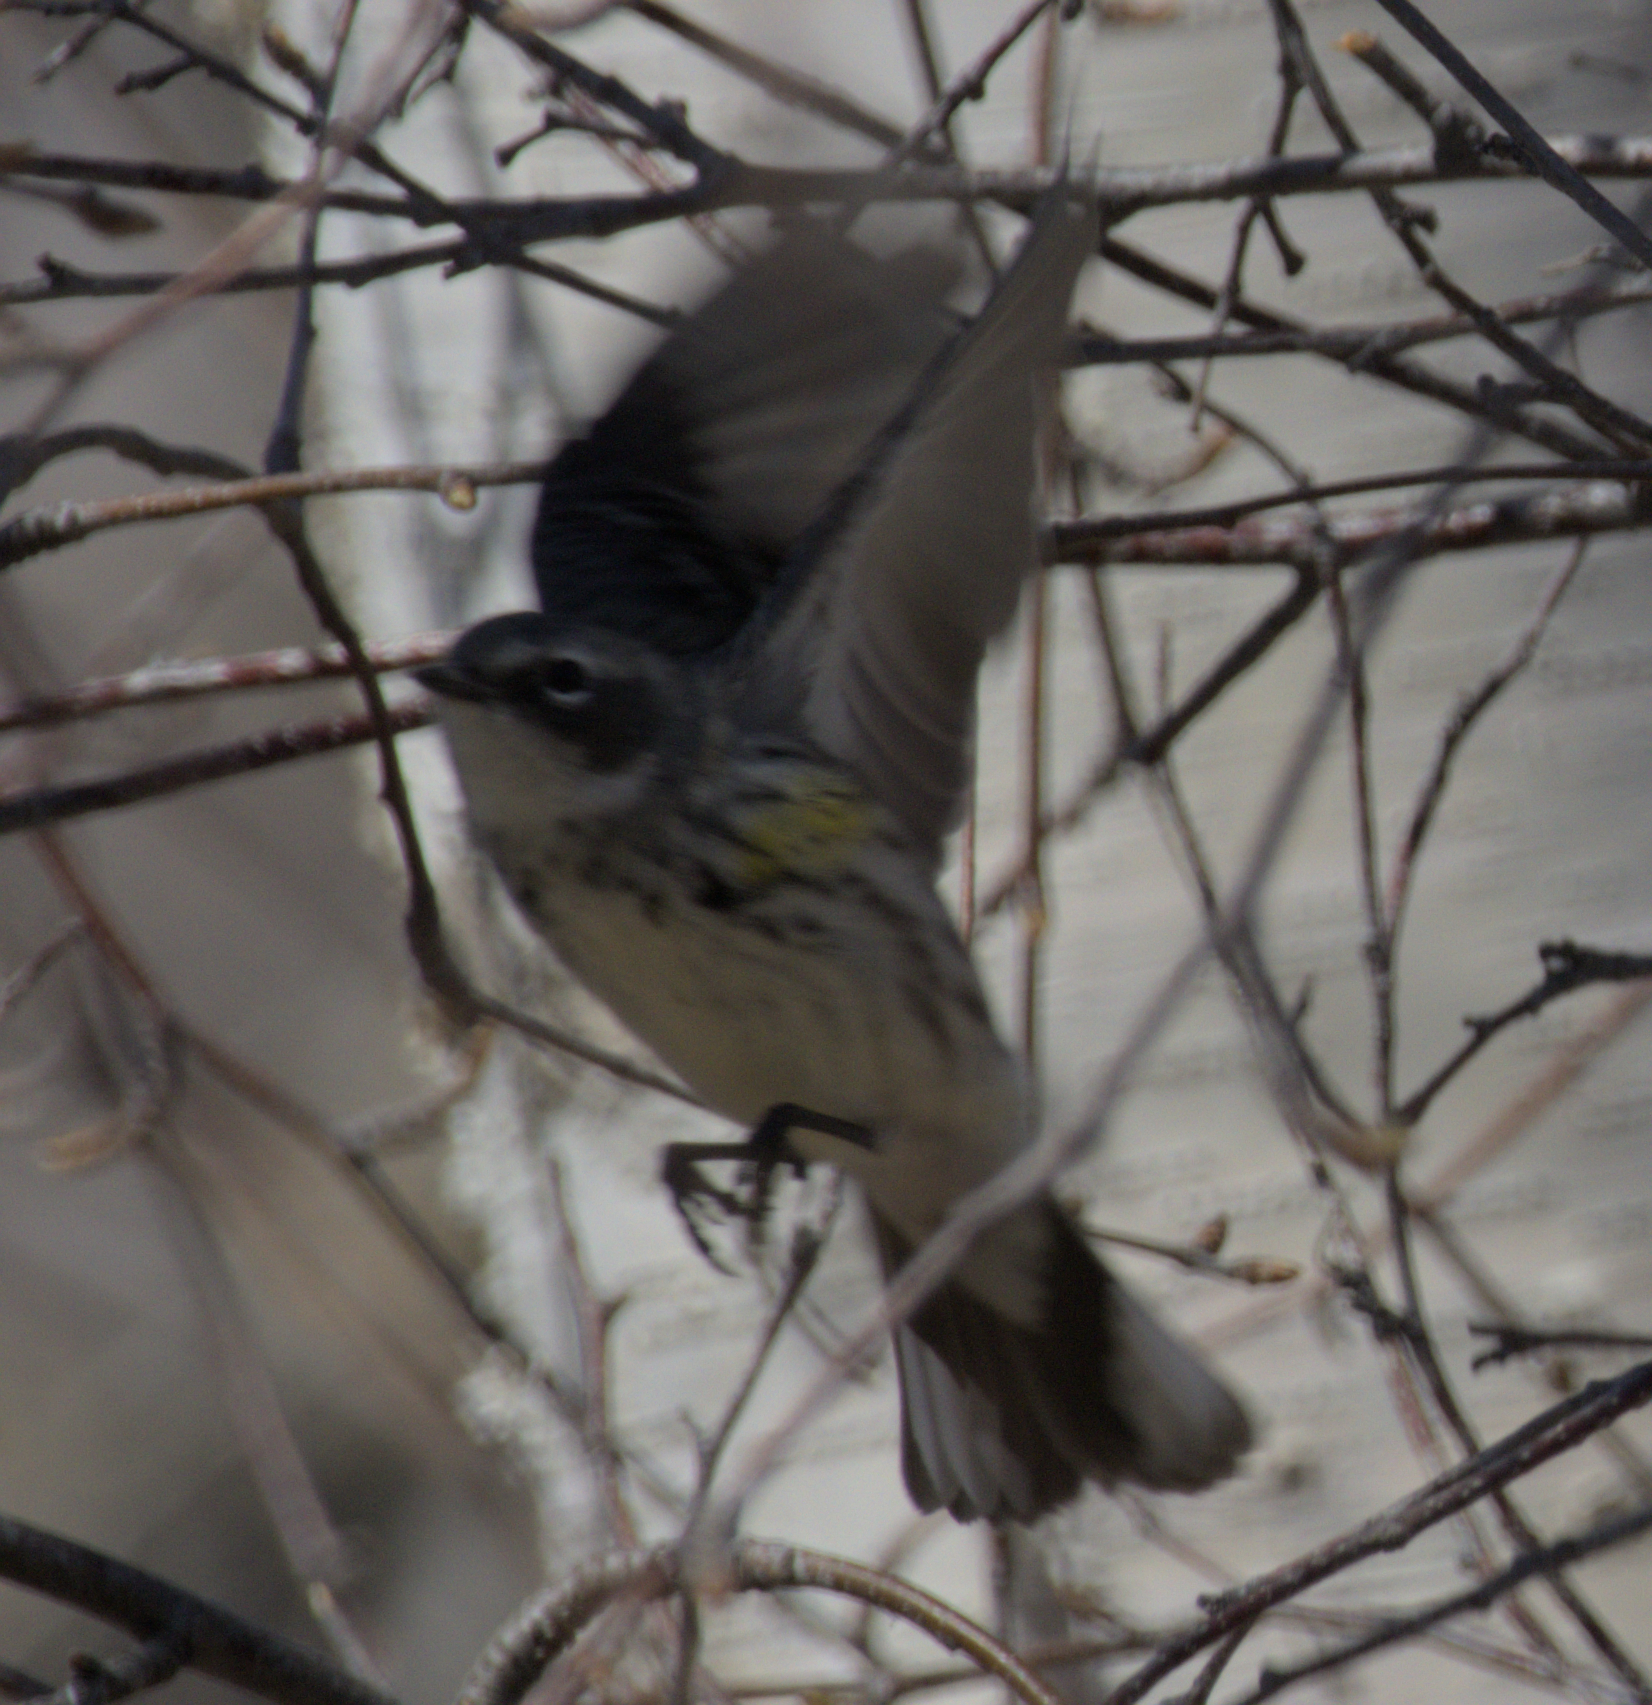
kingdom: Animalia
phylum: Chordata
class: Aves
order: Passeriformes
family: Parulidae
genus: Setophaga
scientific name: Setophaga coronata
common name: Myrtle warbler
